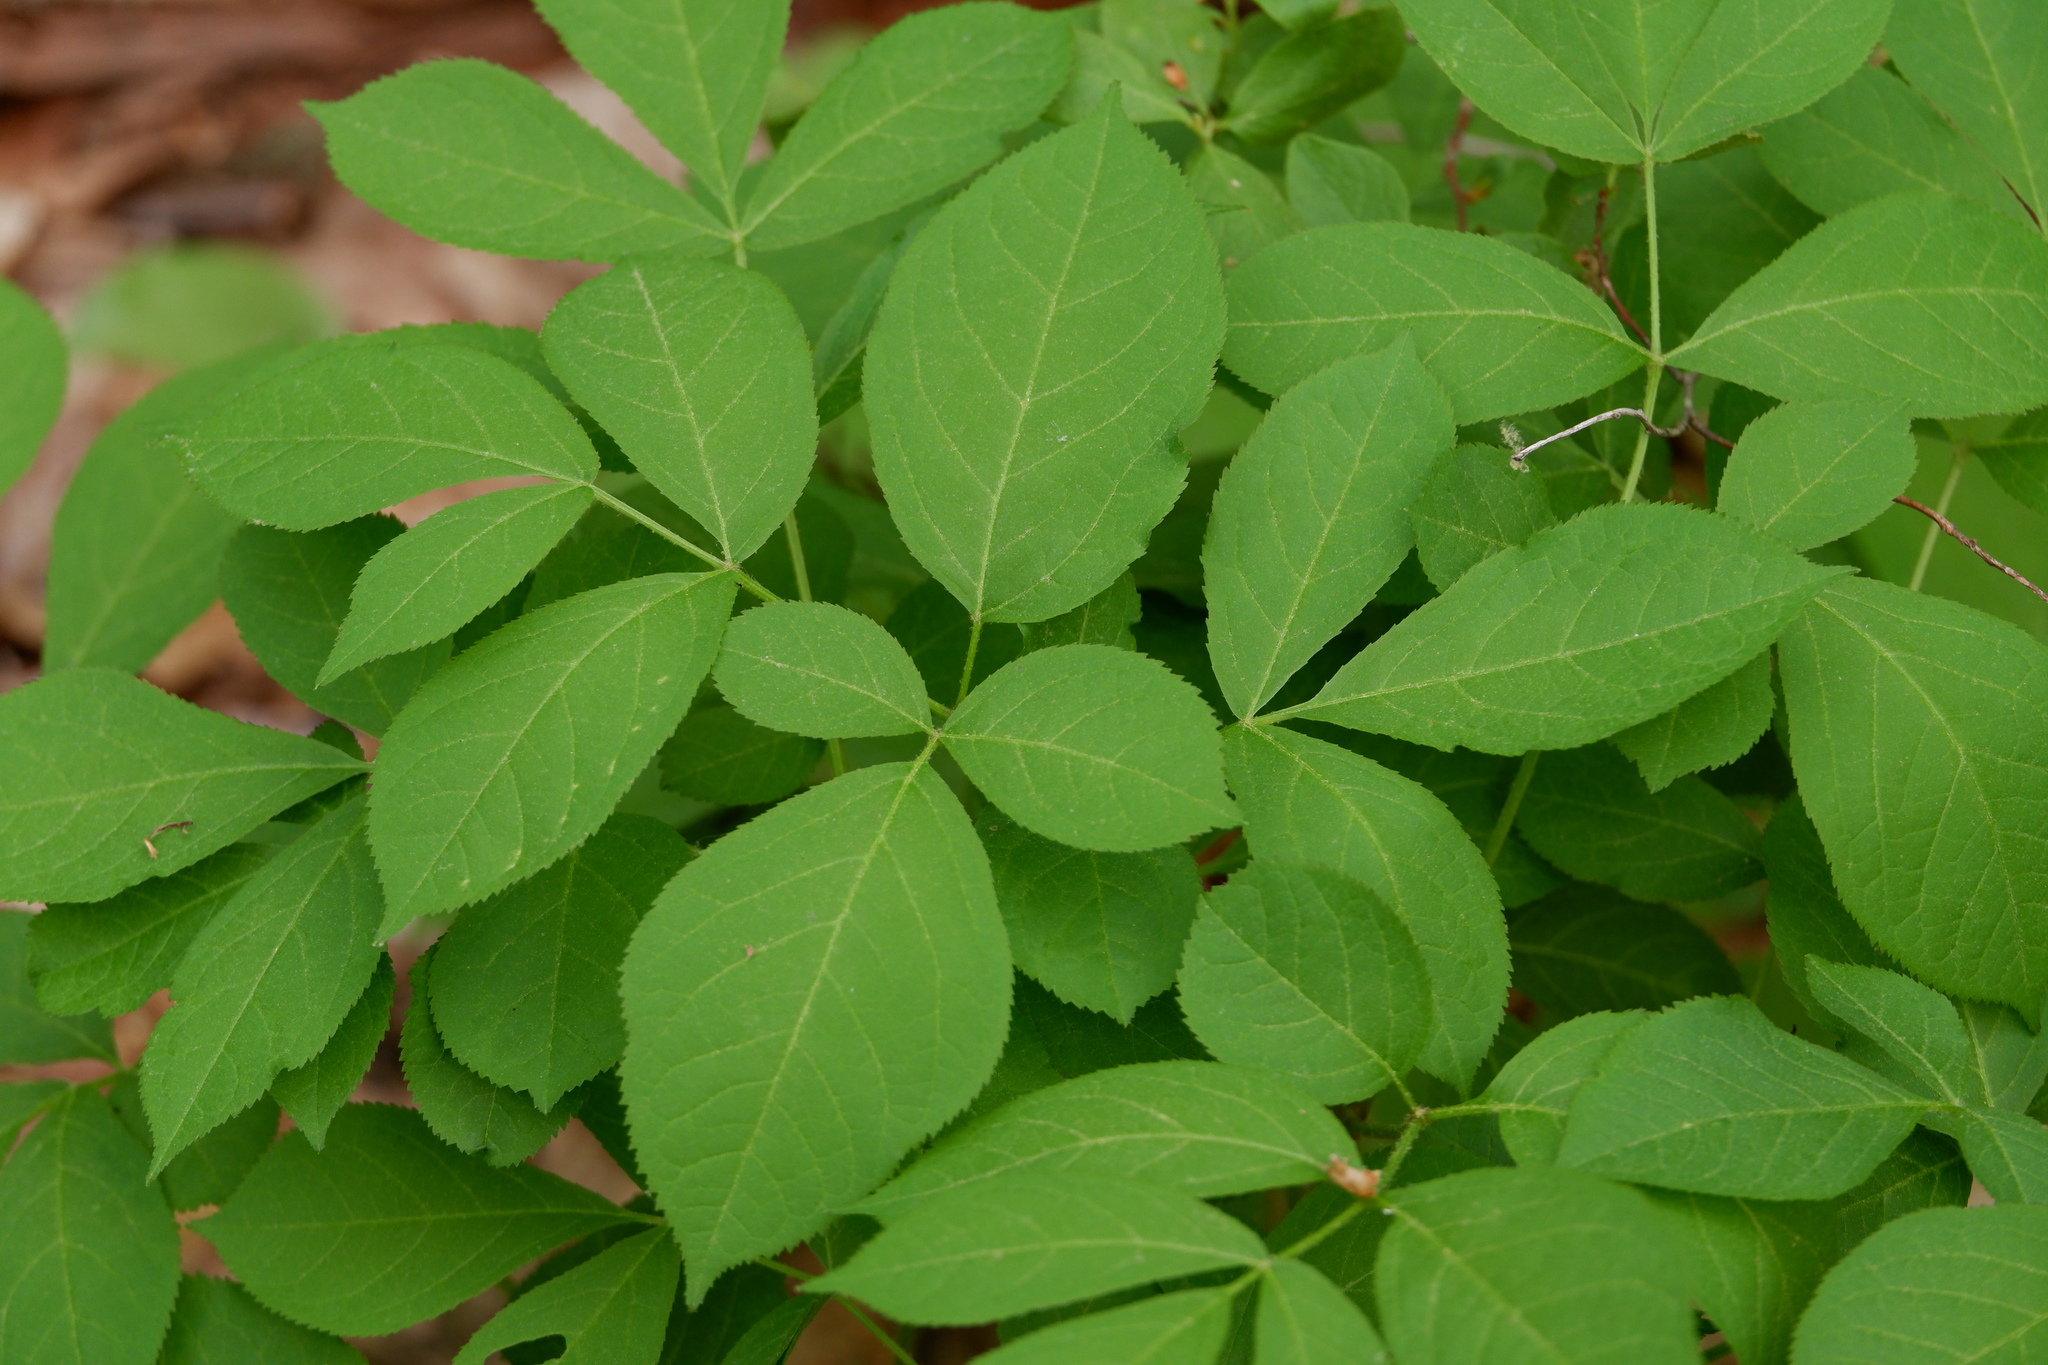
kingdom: Plantae
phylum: Tracheophyta
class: Magnoliopsida
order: Apiales
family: Araliaceae
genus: Aralia
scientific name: Aralia nudicaulis
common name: Wild sarsaparilla
